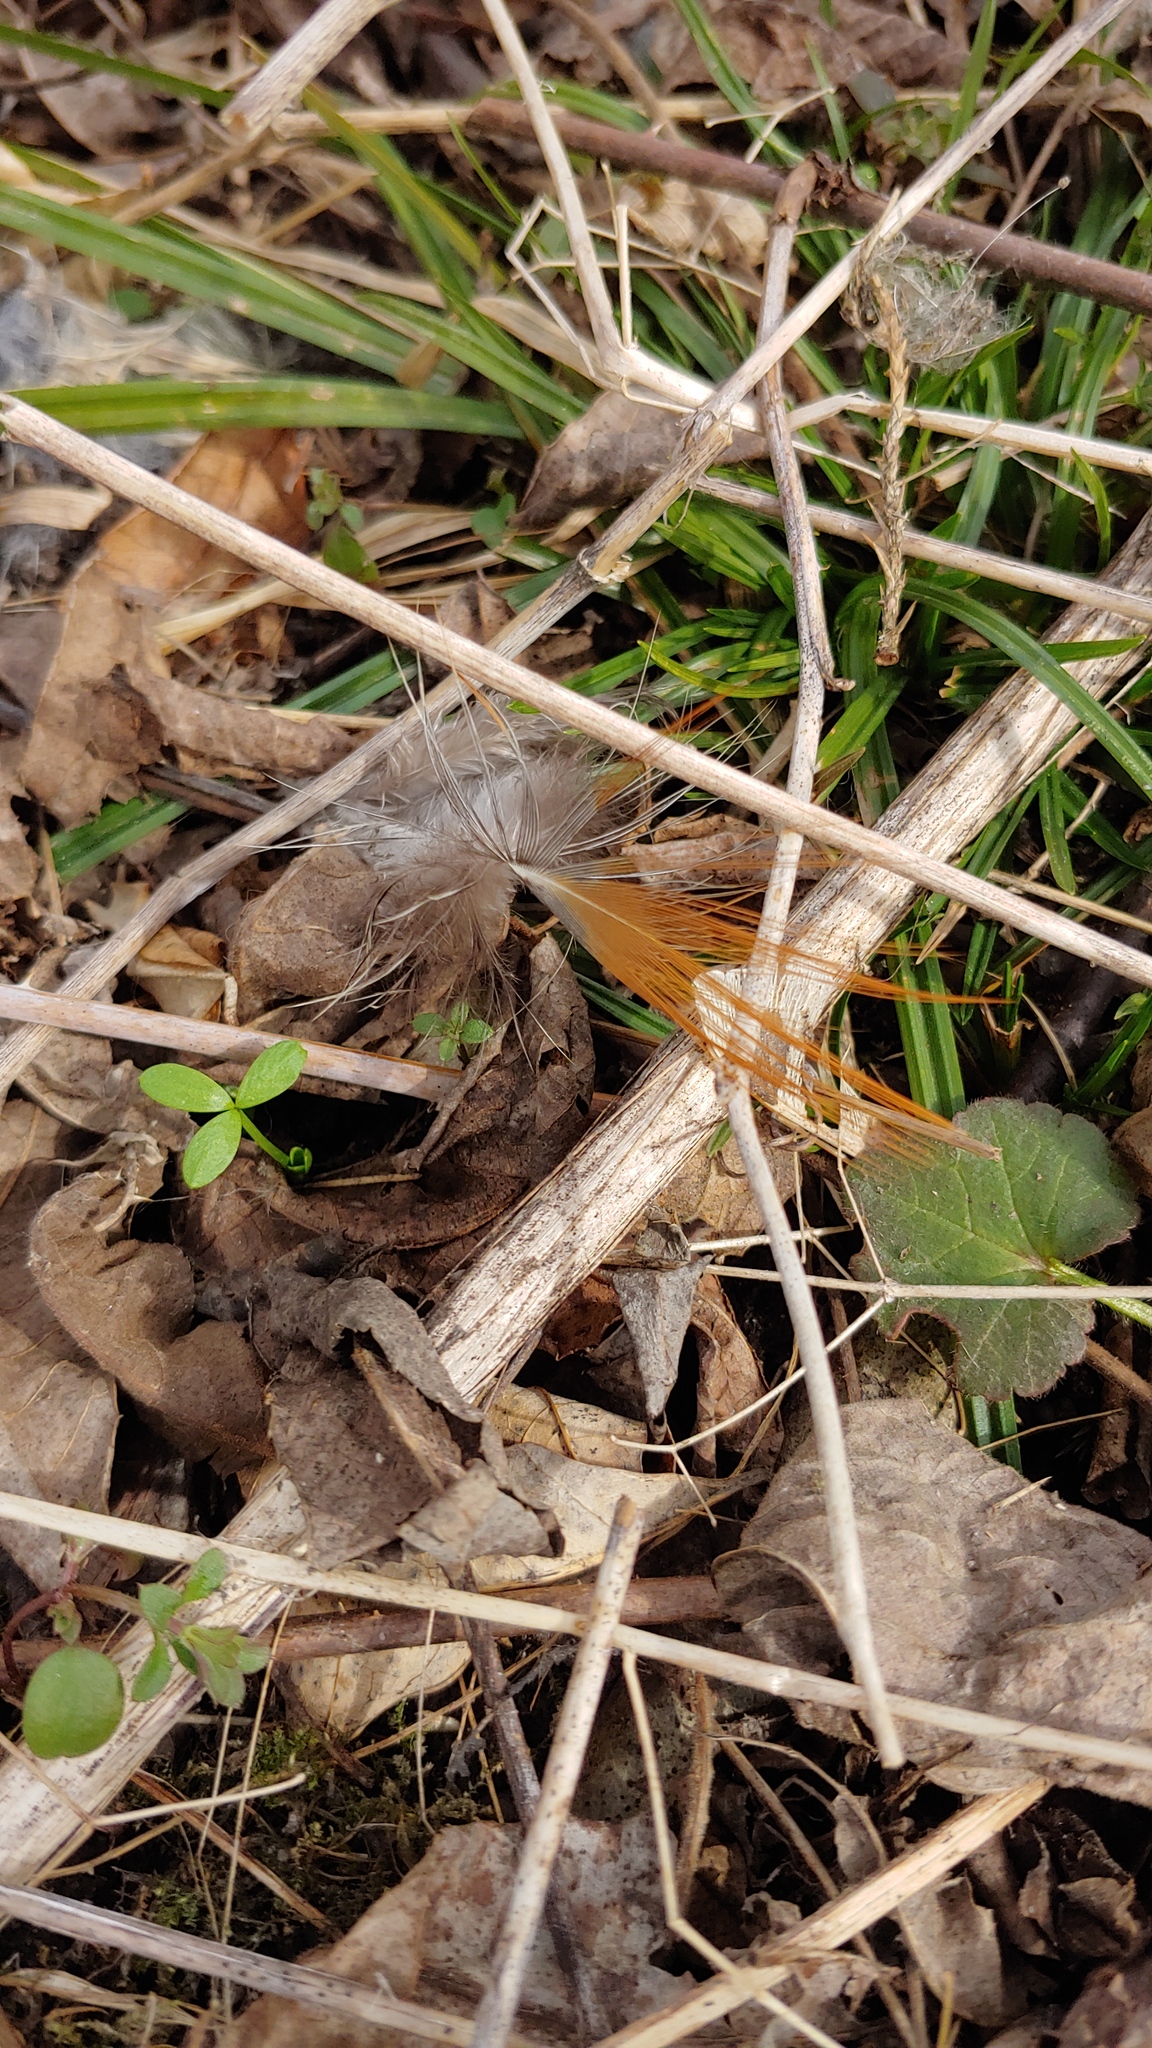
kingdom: Animalia
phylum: Chordata
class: Aves
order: Galliformes
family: Phasianidae
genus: Phasianus
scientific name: Phasianus colchicus
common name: Common pheasant
